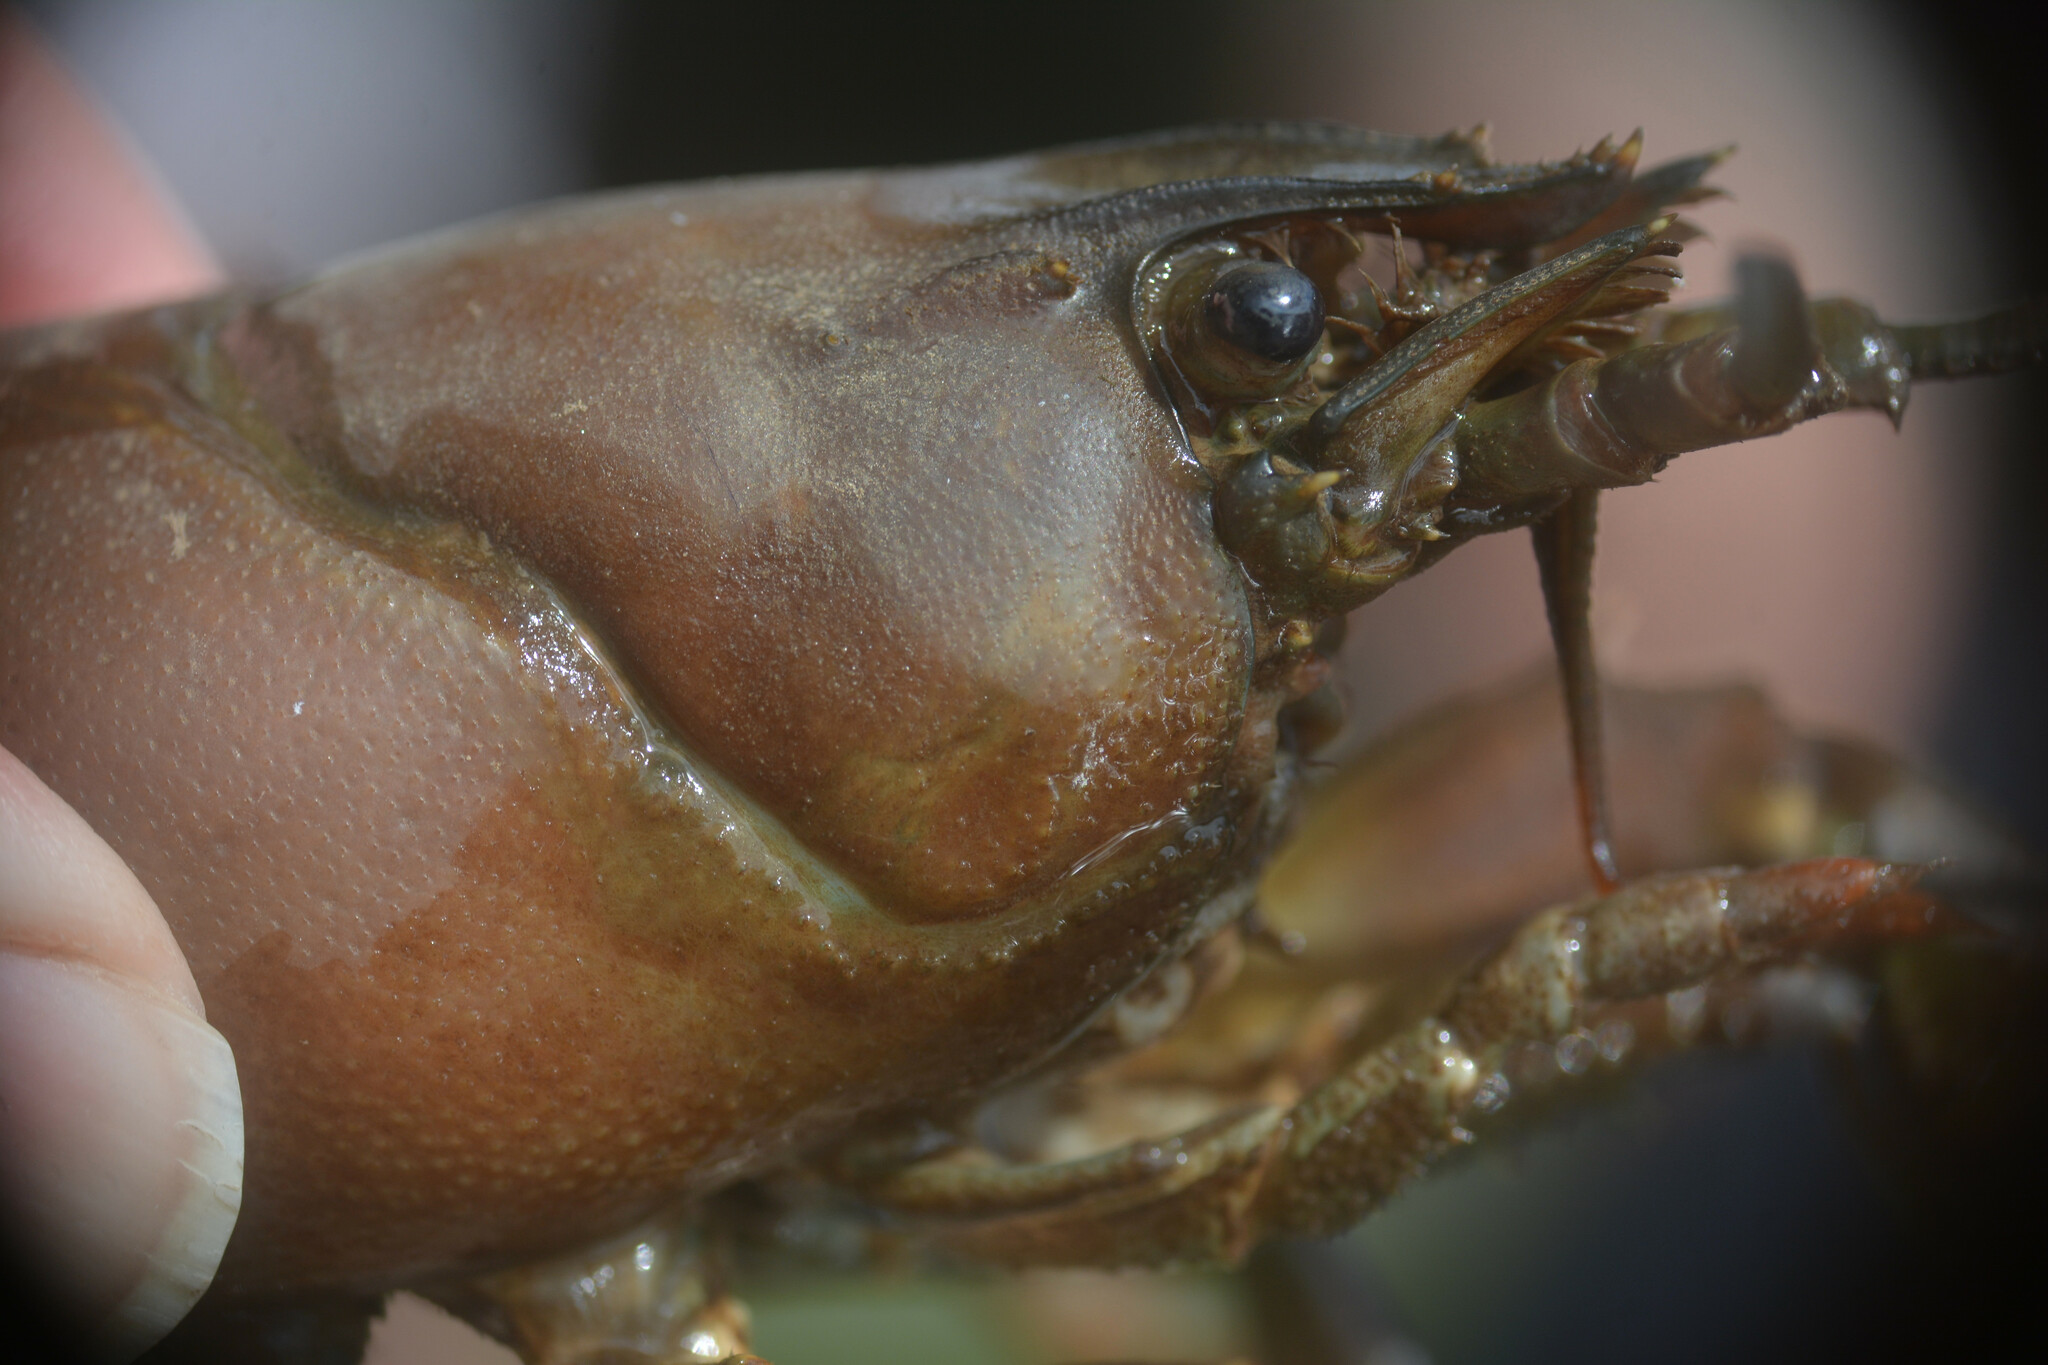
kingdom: Animalia
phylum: Arthropoda
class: Malacostraca
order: Decapoda
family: Astacidae
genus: Pacifastacus
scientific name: Pacifastacus leniusculus
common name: Signal crayfish
